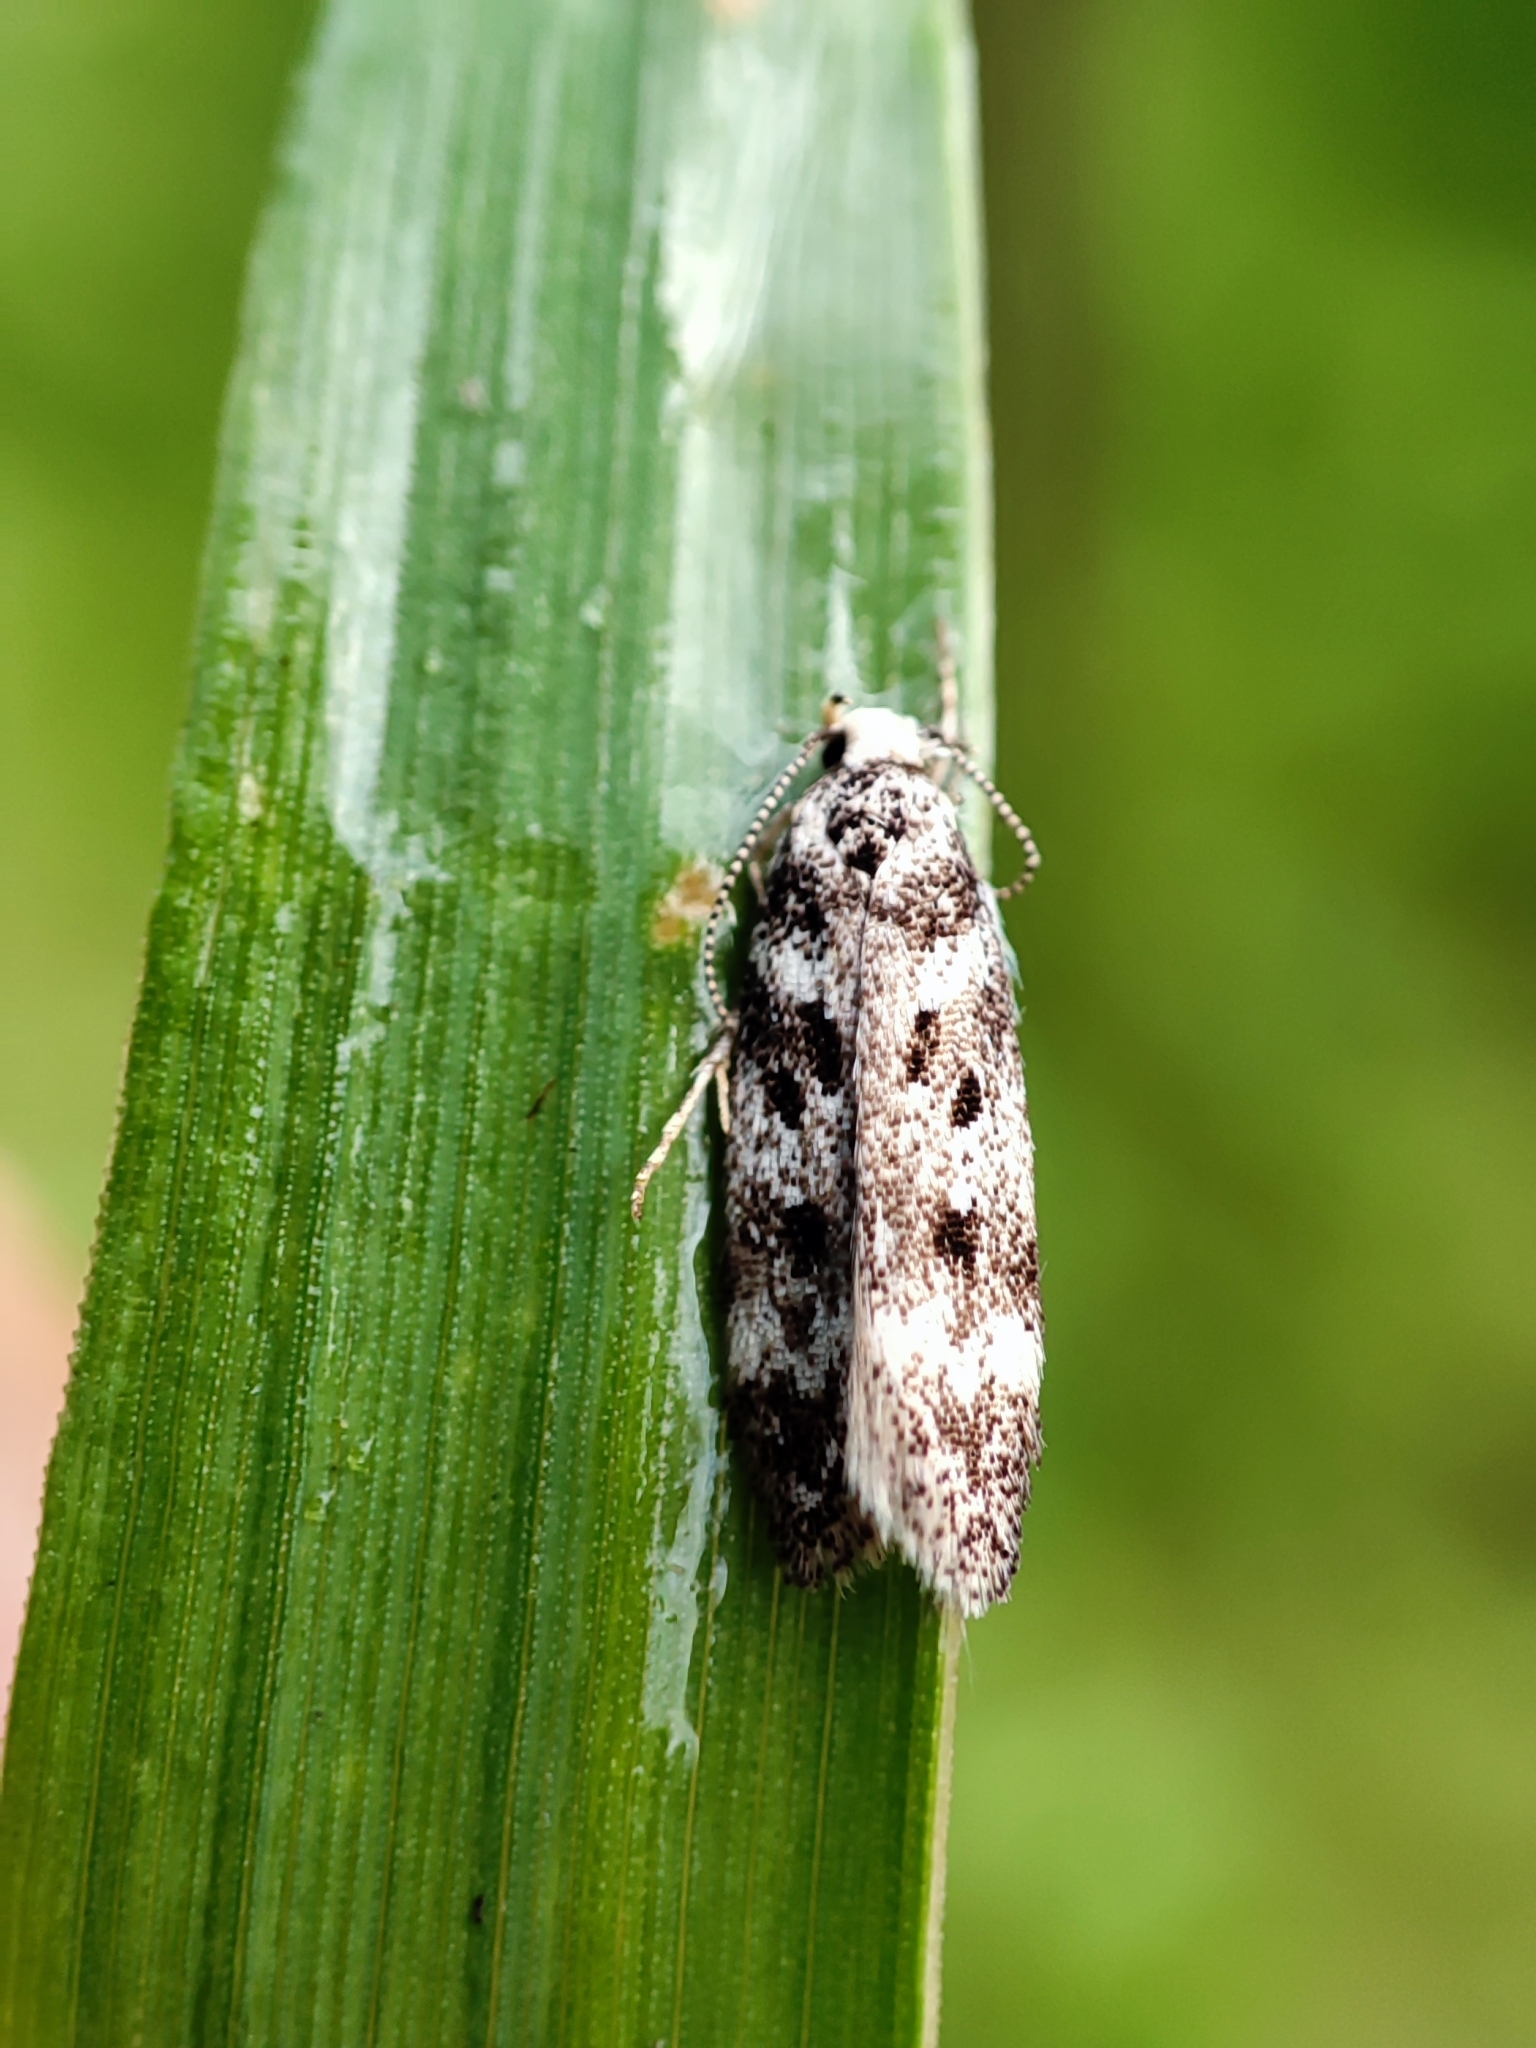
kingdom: Animalia
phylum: Arthropoda
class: Insecta
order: Lepidoptera
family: Gelechiidae
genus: Chionodes
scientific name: Chionodes electella
